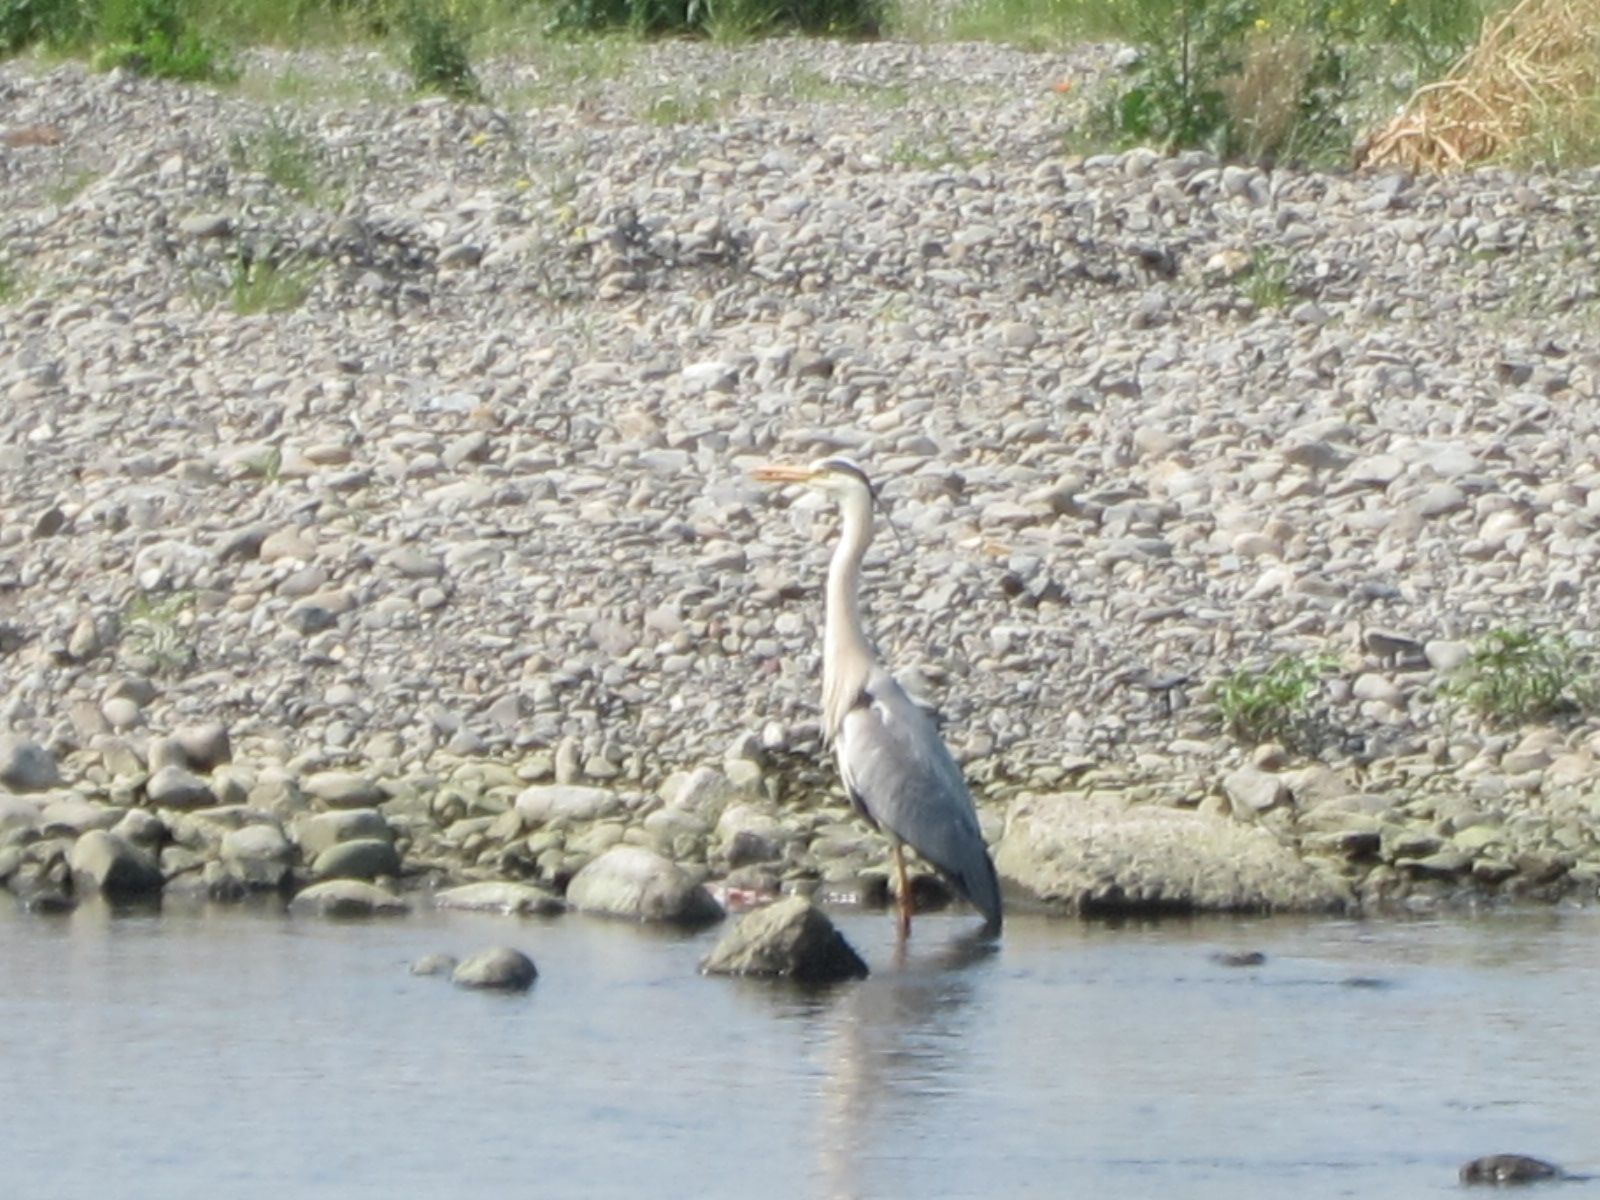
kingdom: Animalia
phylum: Chordata
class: Aves
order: Pelecaniformes
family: Ardeidae
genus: Ardea
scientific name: Ardea cinerea
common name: Grey heron
